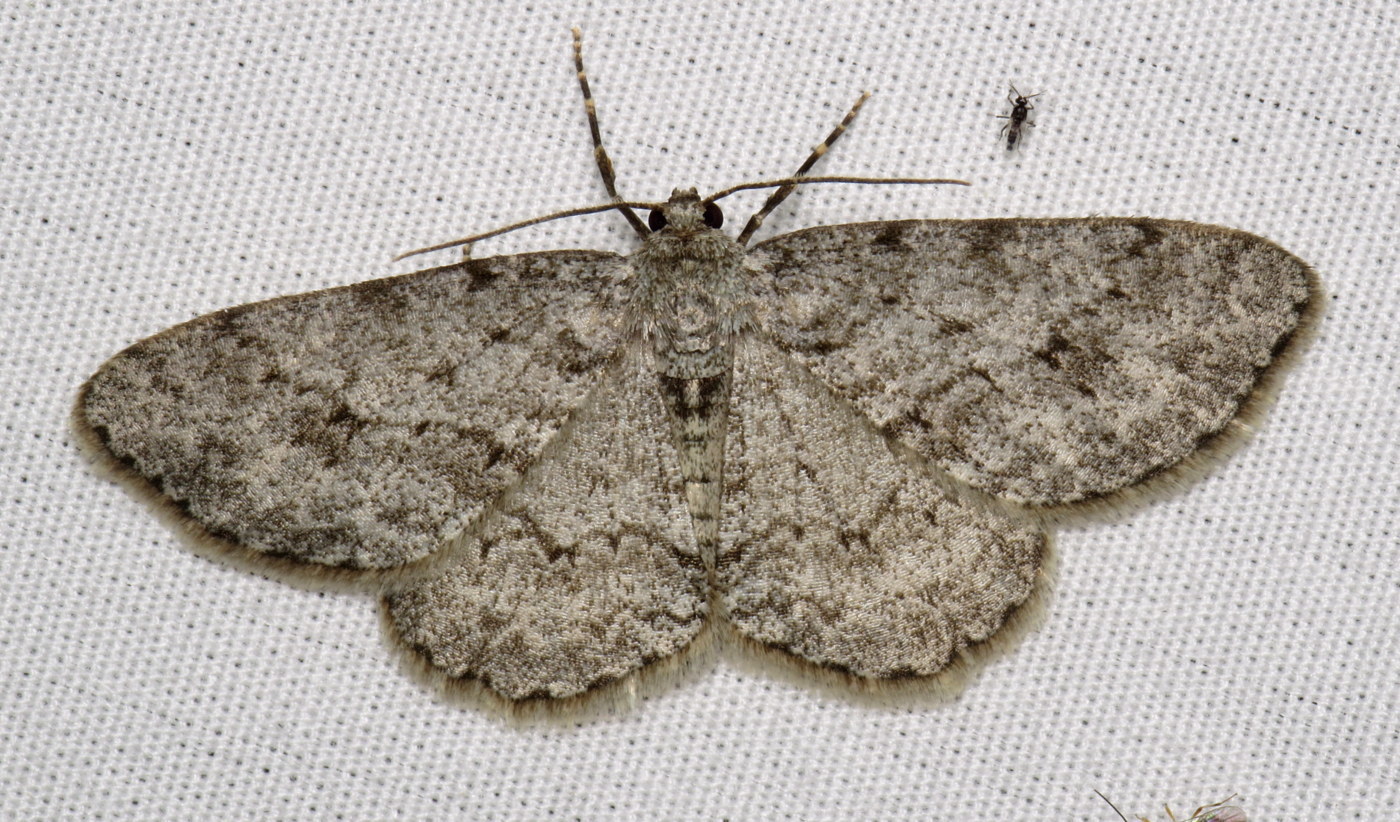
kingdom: Animalia
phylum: Arthropoda
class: Insecta
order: Lepidoptera
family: Geometridae
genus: Ectropis
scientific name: Ectropis crepuscularia
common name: Engrailed
